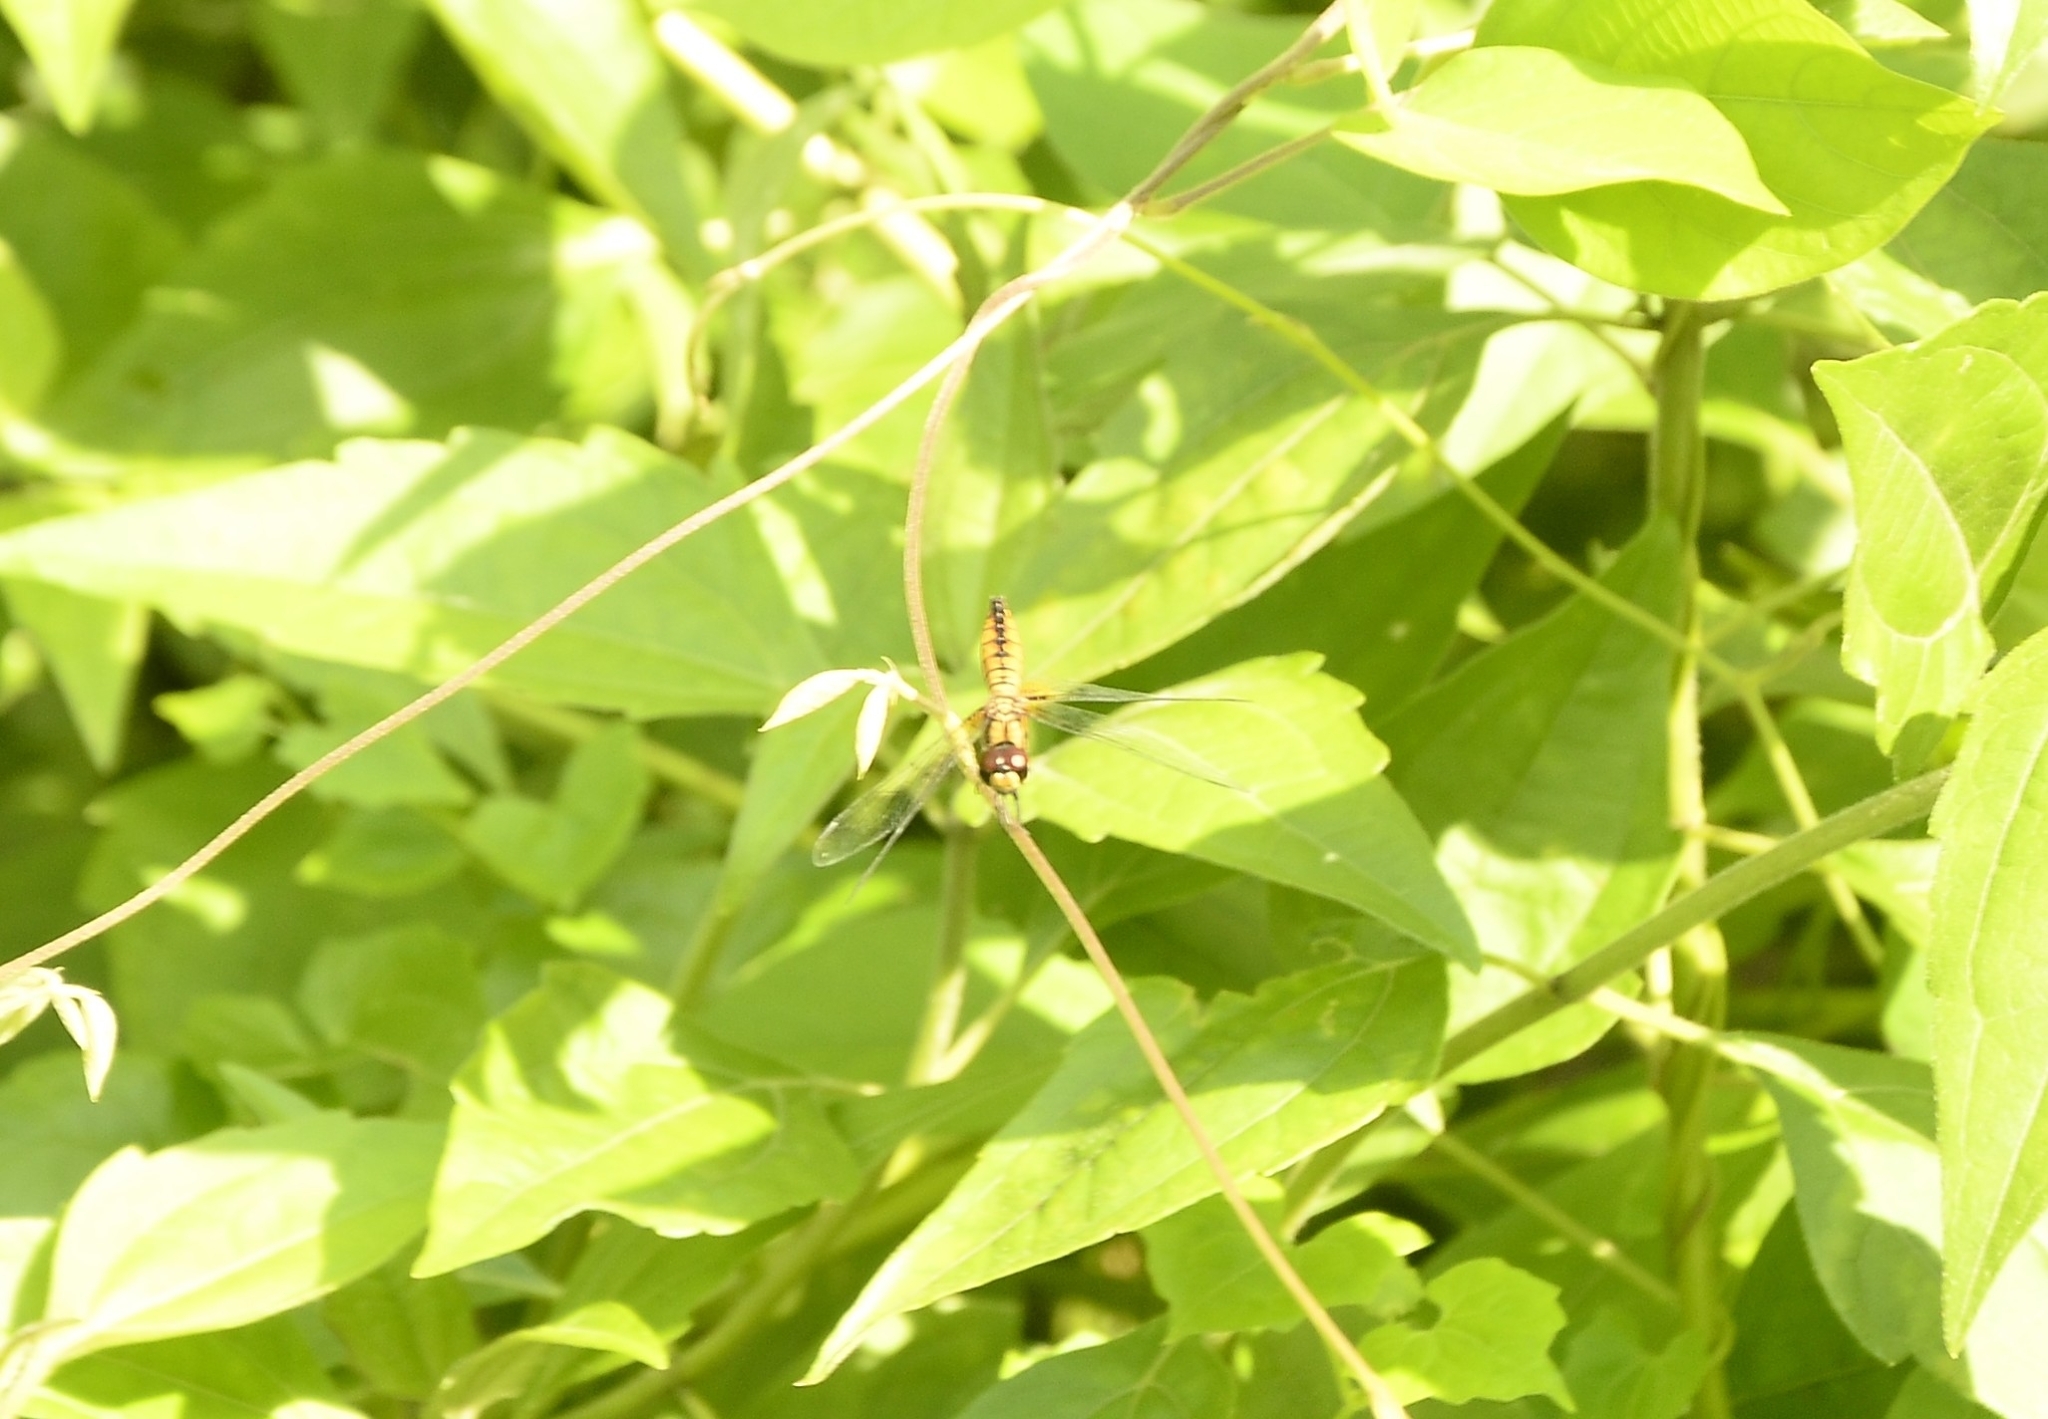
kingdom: Animalia
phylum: Arthropoda
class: Insecta
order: Odonata
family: Libellulidae
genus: Aethriamanta
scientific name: Aethriamanta brevipennis
